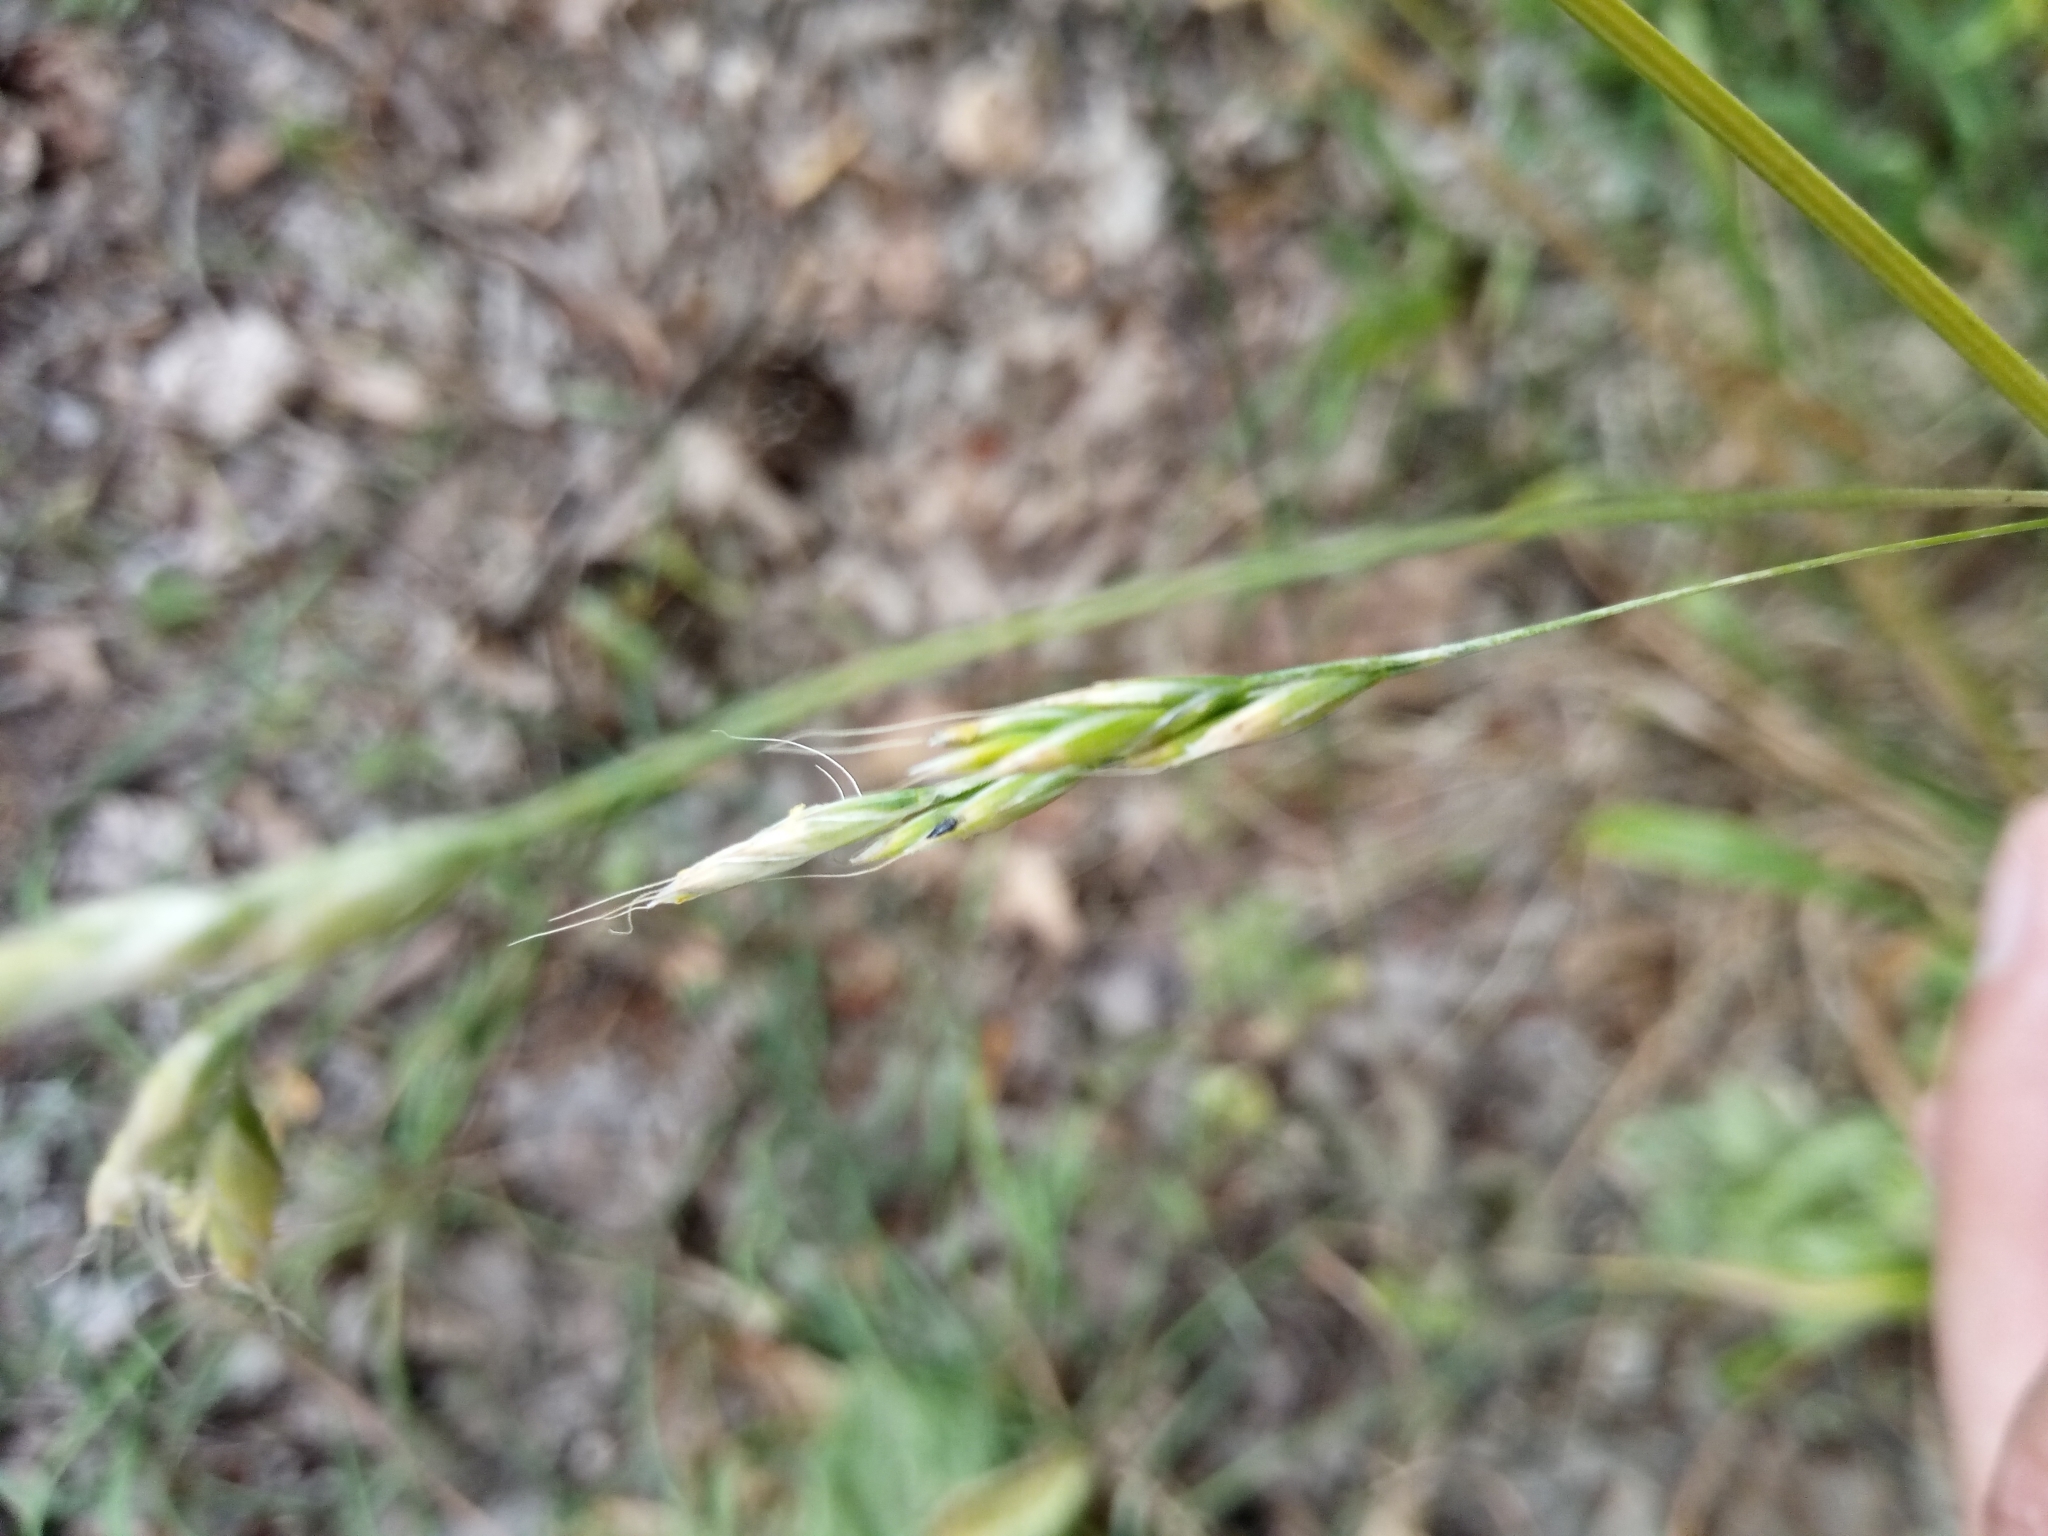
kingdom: Plantae
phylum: Tracheophyta
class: Liliopsida
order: Poales
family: Poaceae
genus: Lolium
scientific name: Lolium giganteum
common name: Giant fescue
